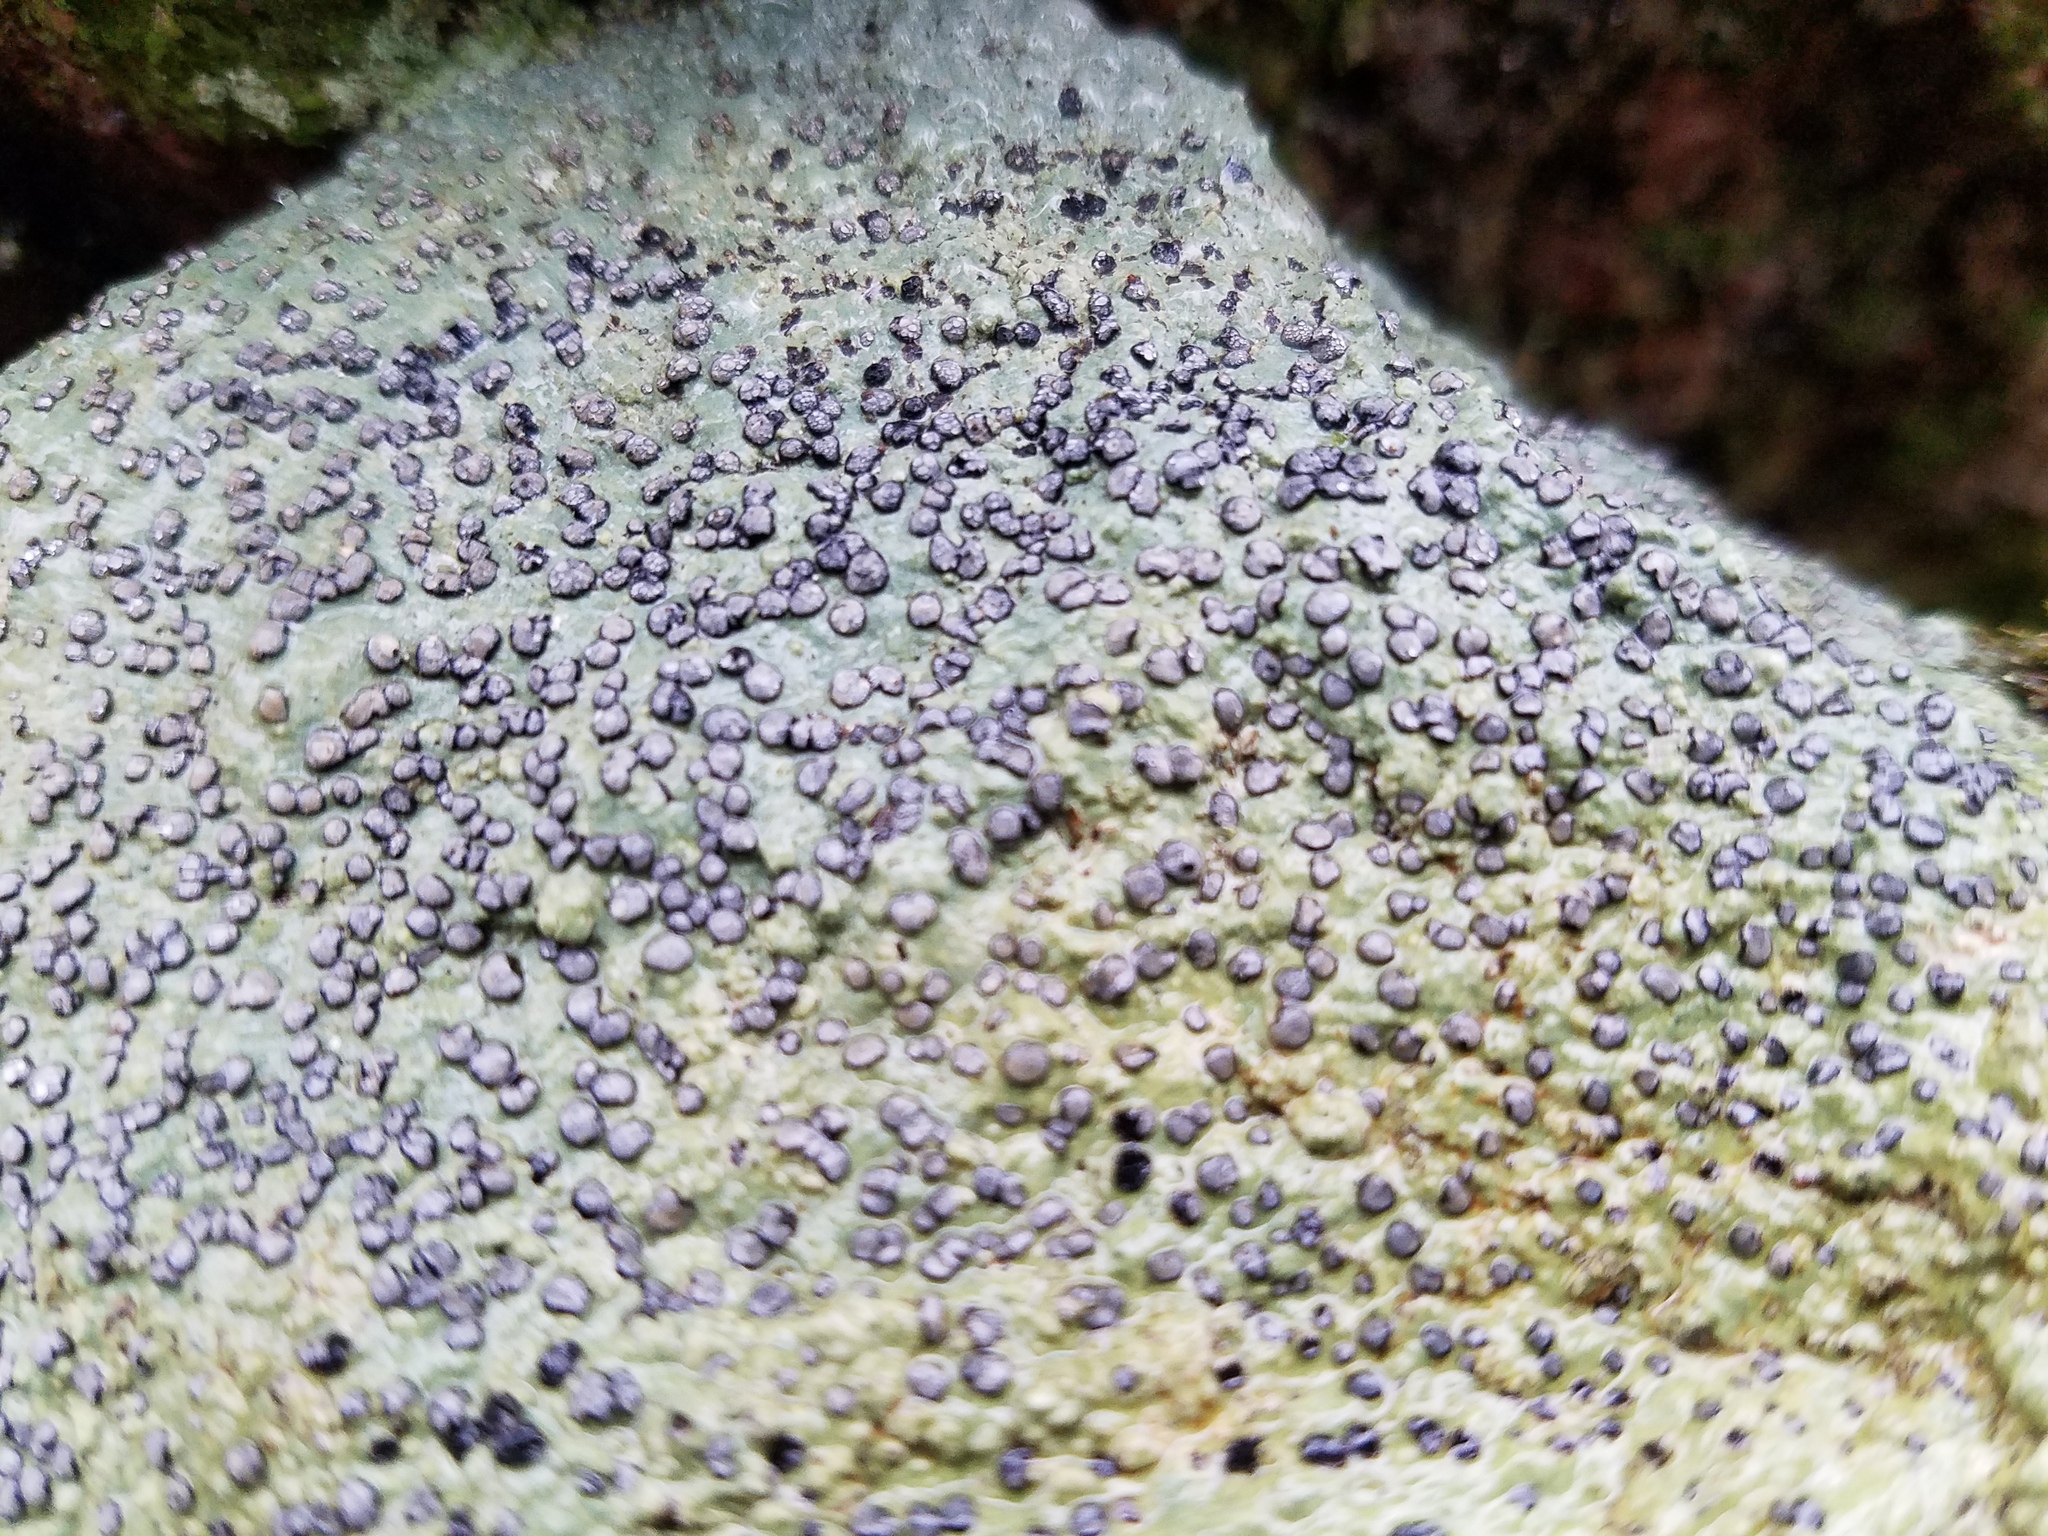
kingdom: Fungi
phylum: Ascomycota
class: Lecanoromycetes
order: Lecideales
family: Lecideaceae
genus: Porpidia
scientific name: Porpidia albocaerulescens
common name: Smokey-eyed boulder lichen
